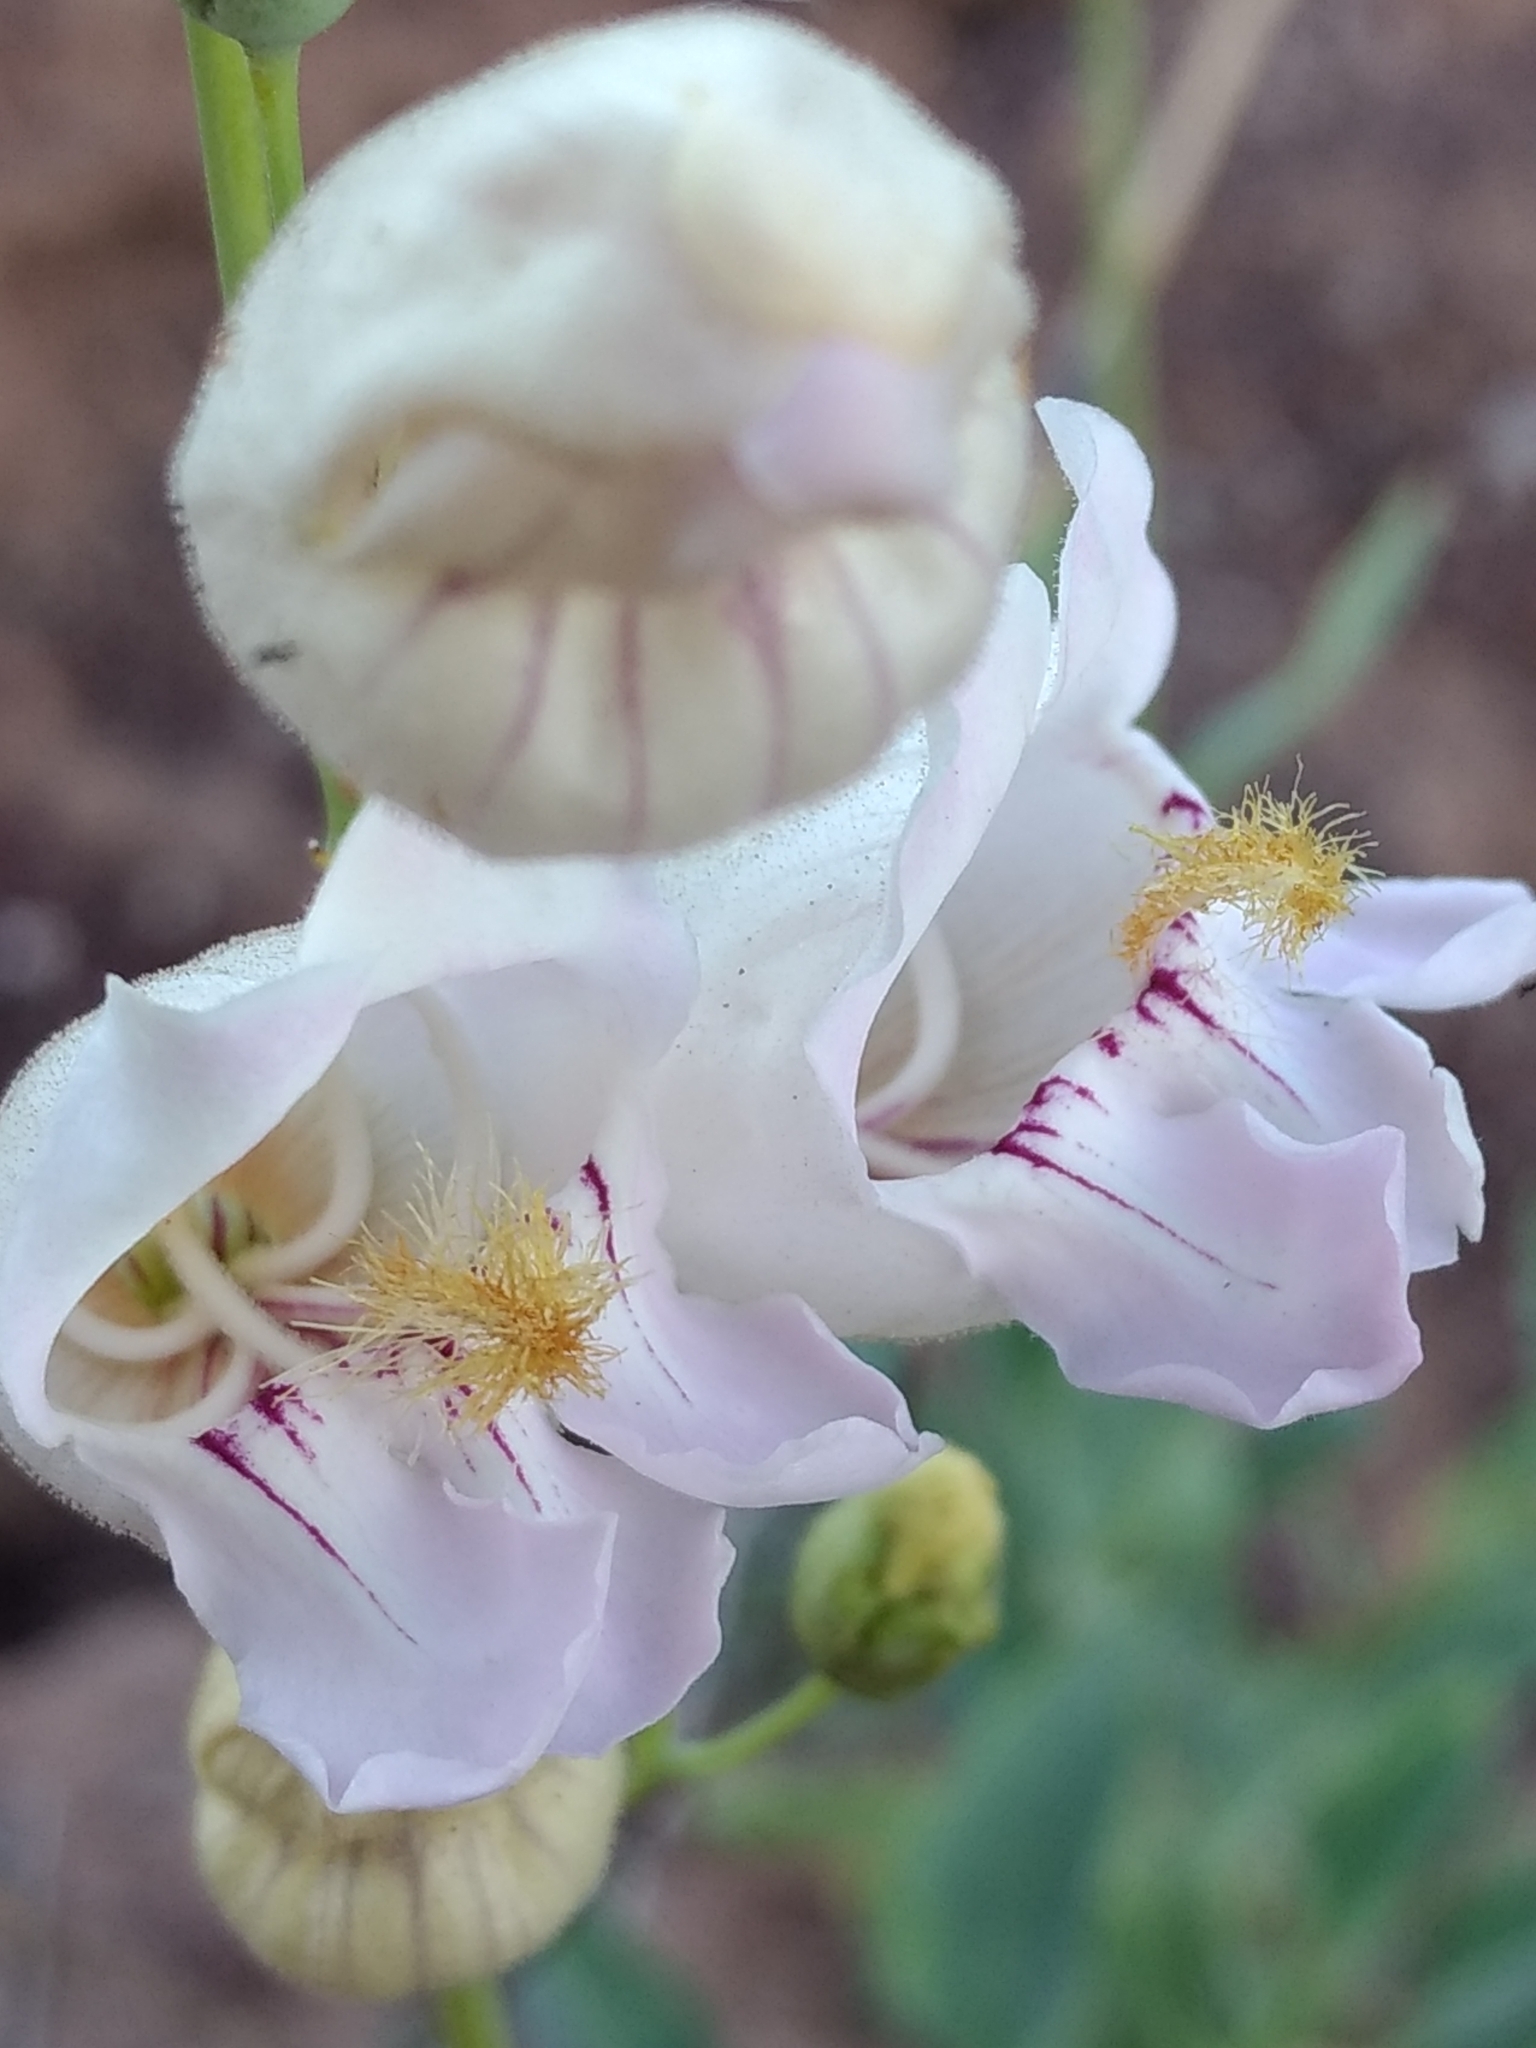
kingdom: Plantae
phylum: Tracheophyta
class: Magnoliopsida
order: Lamiales
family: Plantaginaceae
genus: Penstemon
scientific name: Penstemon palmeri
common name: Palmer penstemon
